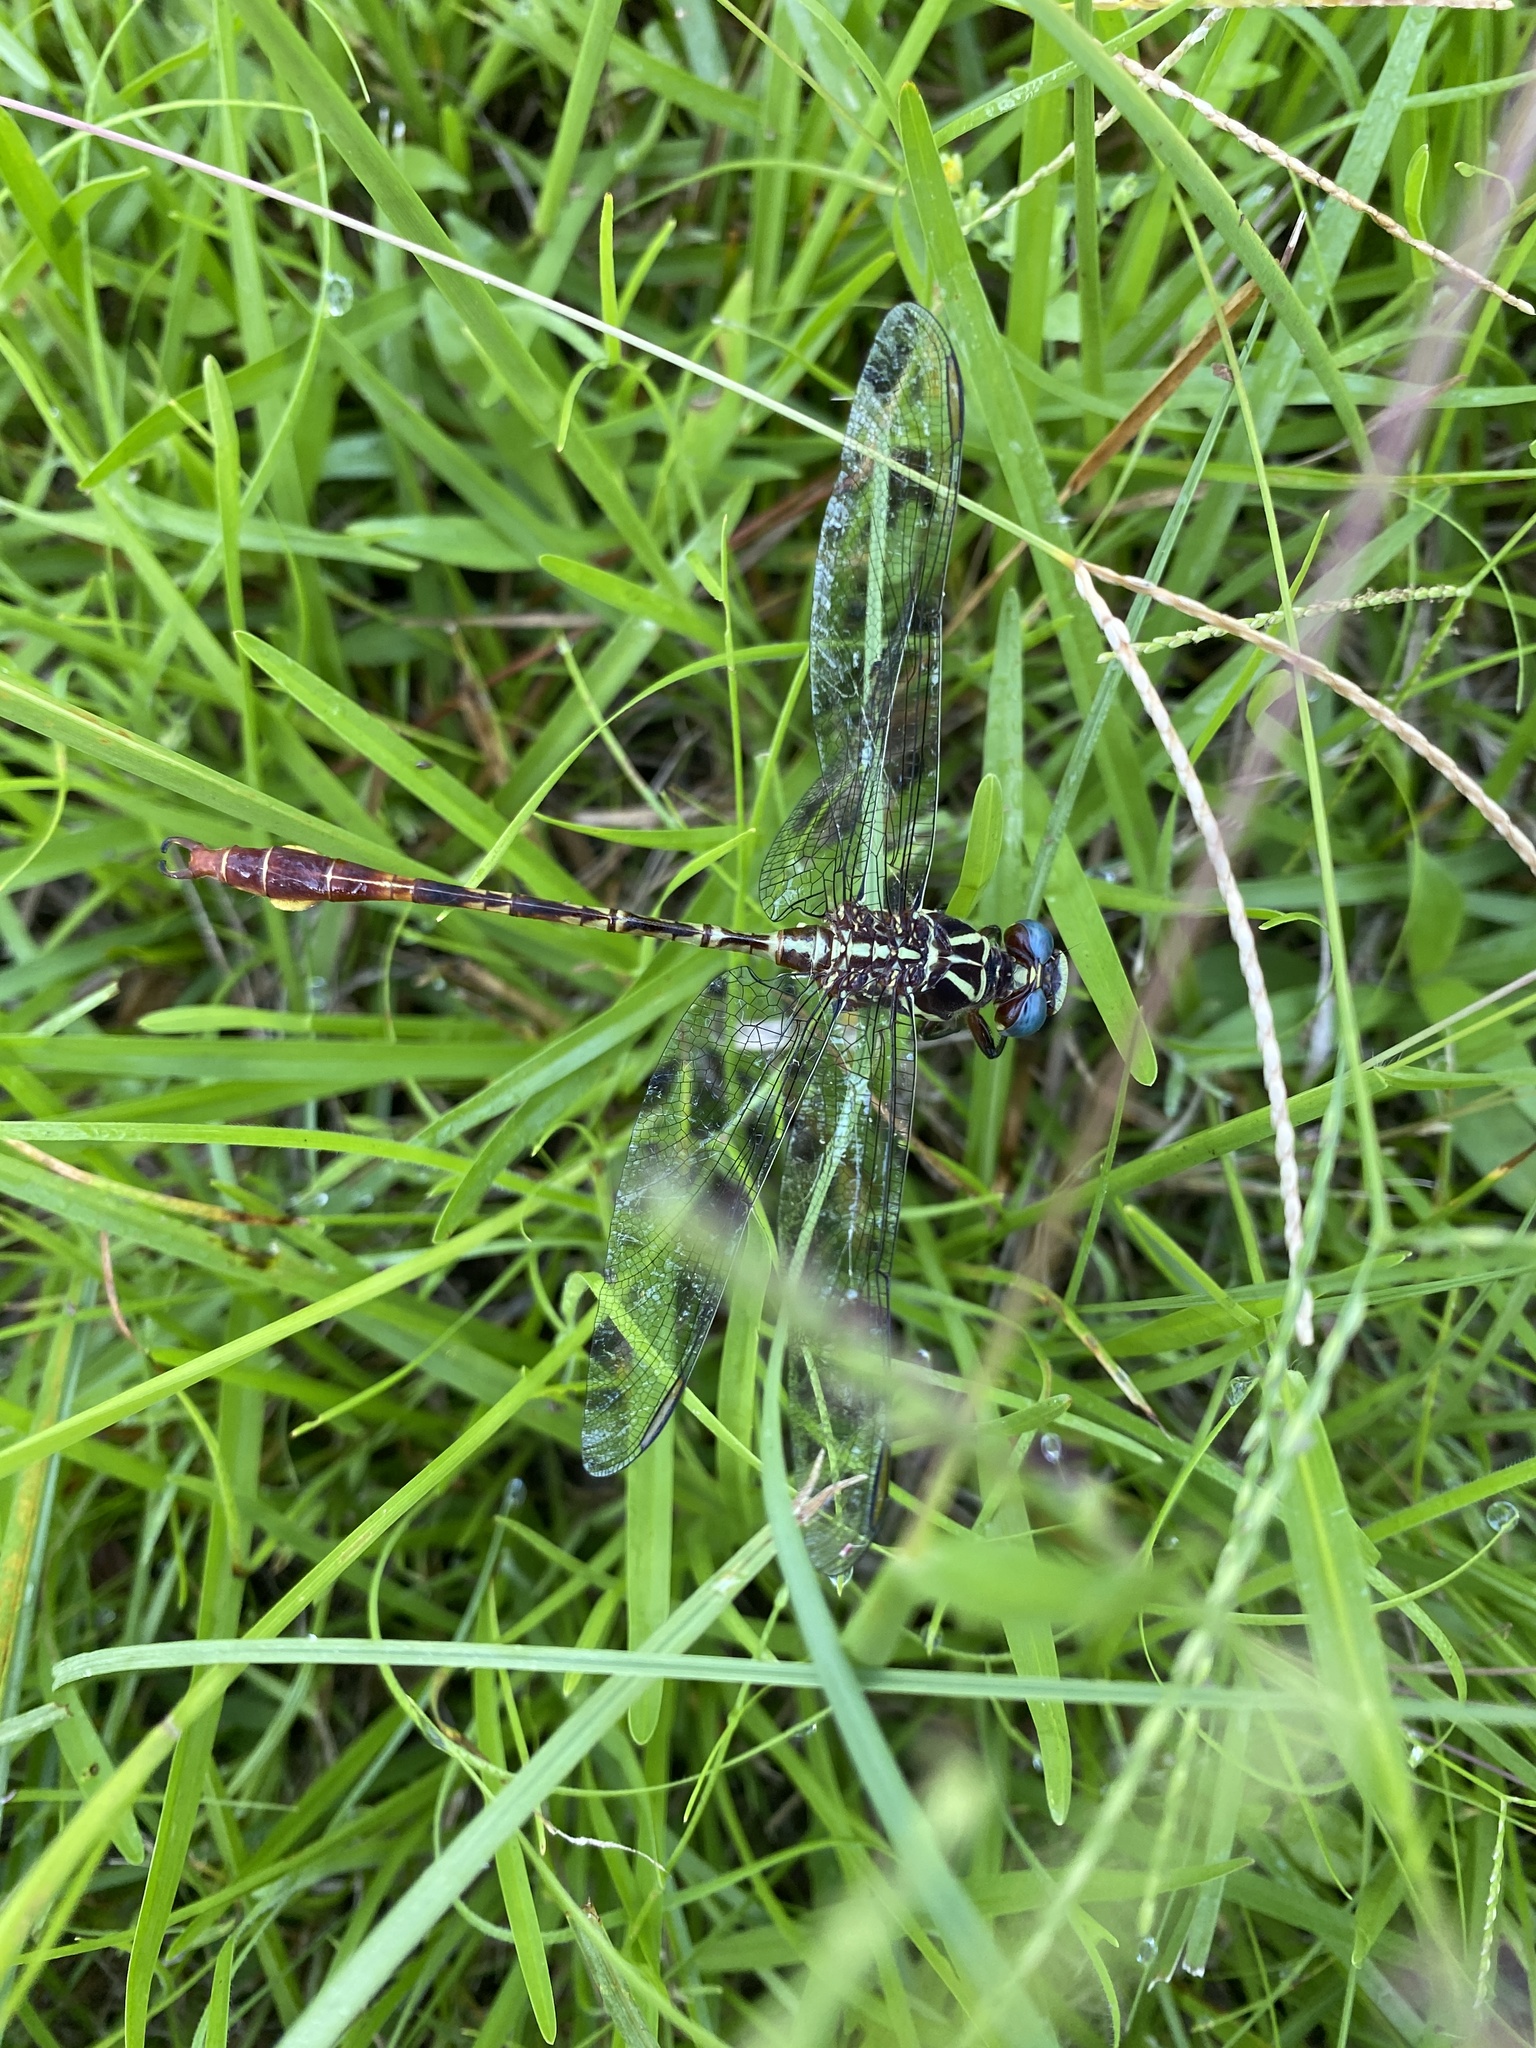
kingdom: Animalia
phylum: Arthropoda
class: Insecta
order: Odonata
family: Gomphidae
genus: Aphylla
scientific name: Aphylla williamsoni
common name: Two-striped forceptail
